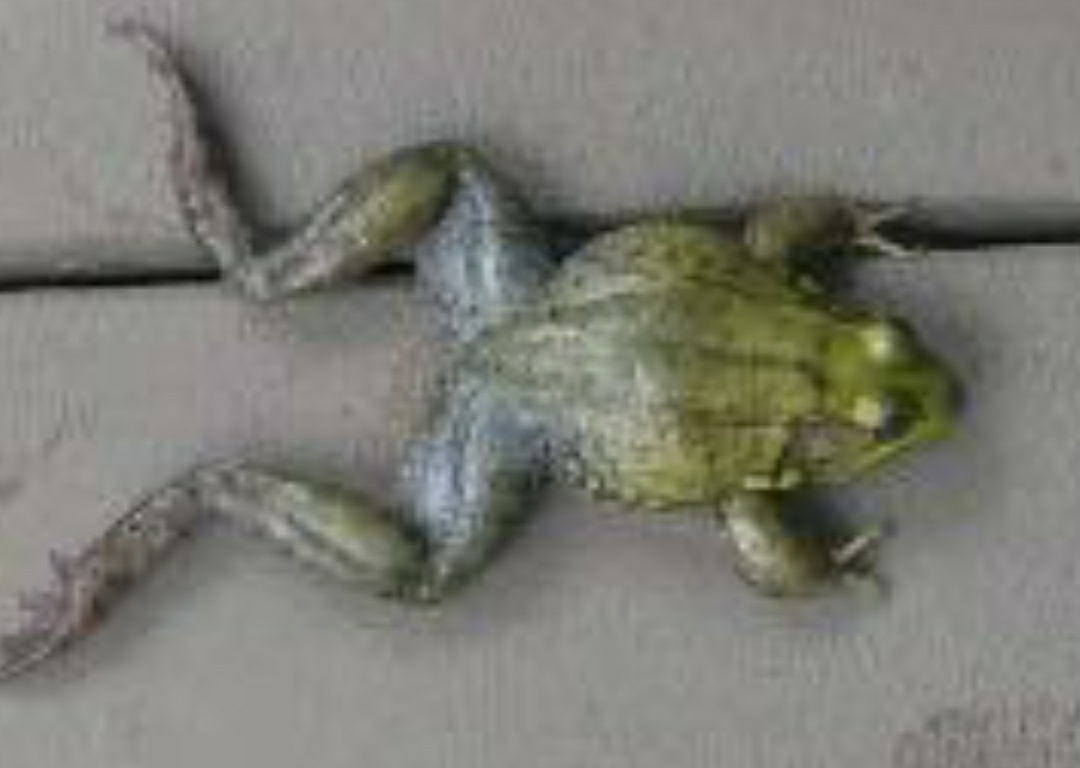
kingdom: Animalia
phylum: Chordata
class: Amphibia
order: Anura
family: Ranidae
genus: Lithobates
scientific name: Lithobates clamitans
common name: Green frog
